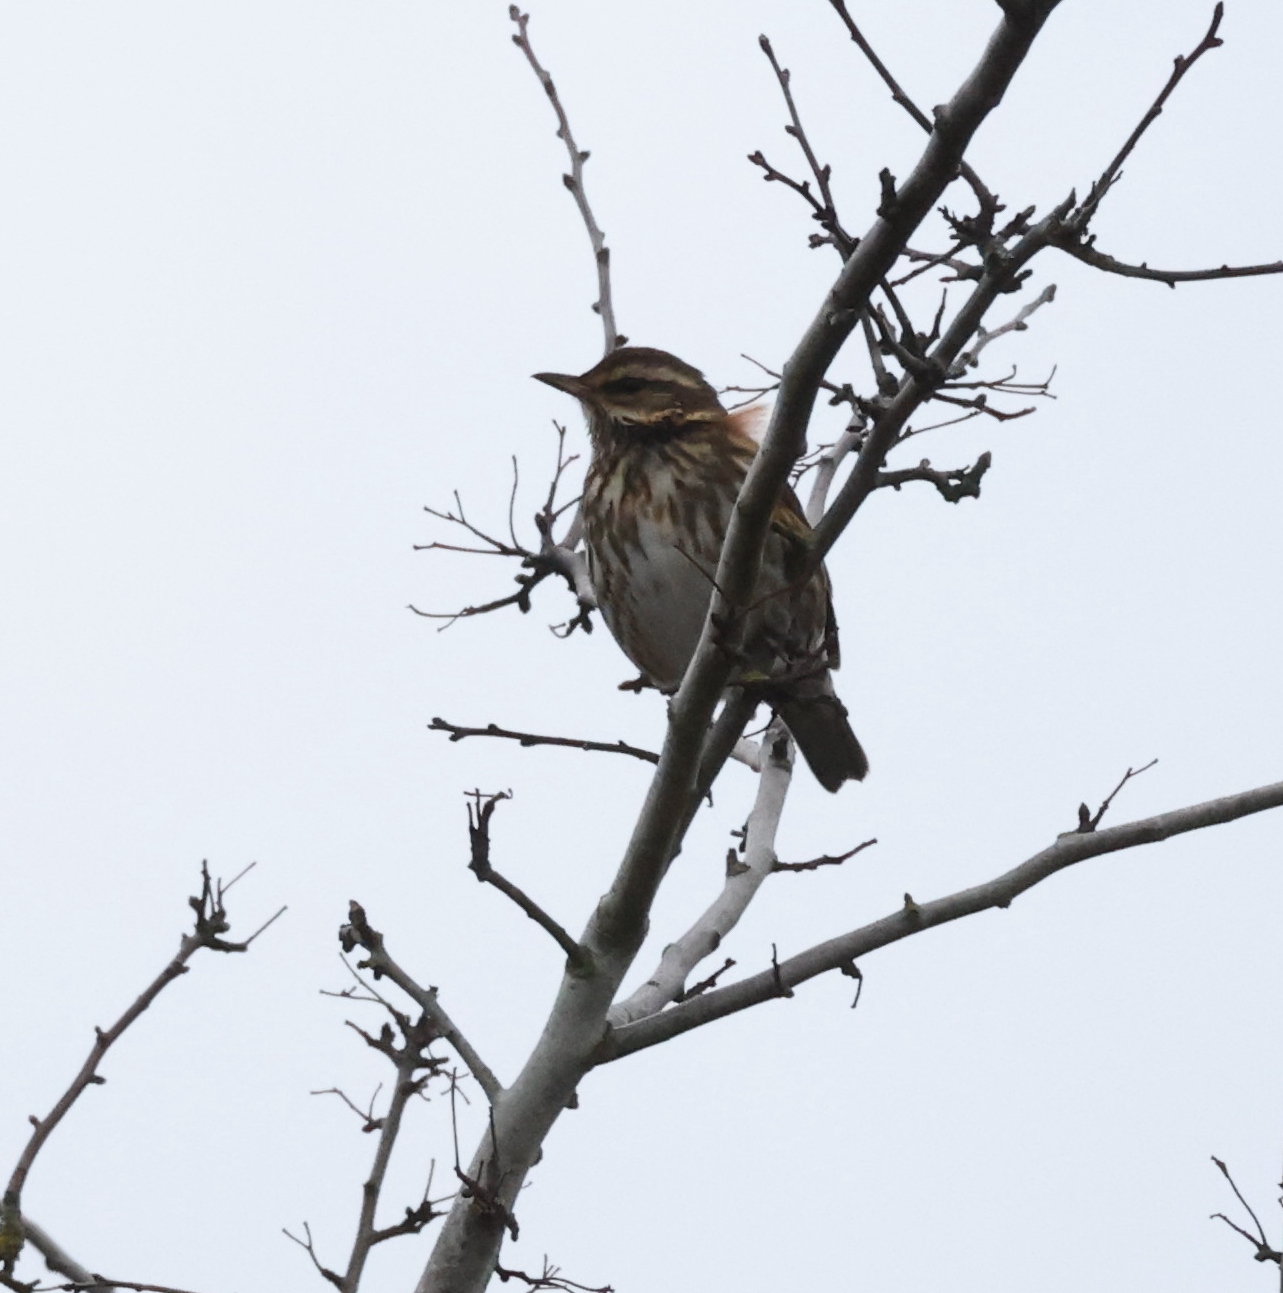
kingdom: Animalia
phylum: Chordata
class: Aves
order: Passeriformes
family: Turdidae
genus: Turdus
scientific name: Turdus iliacus
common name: Redwing
